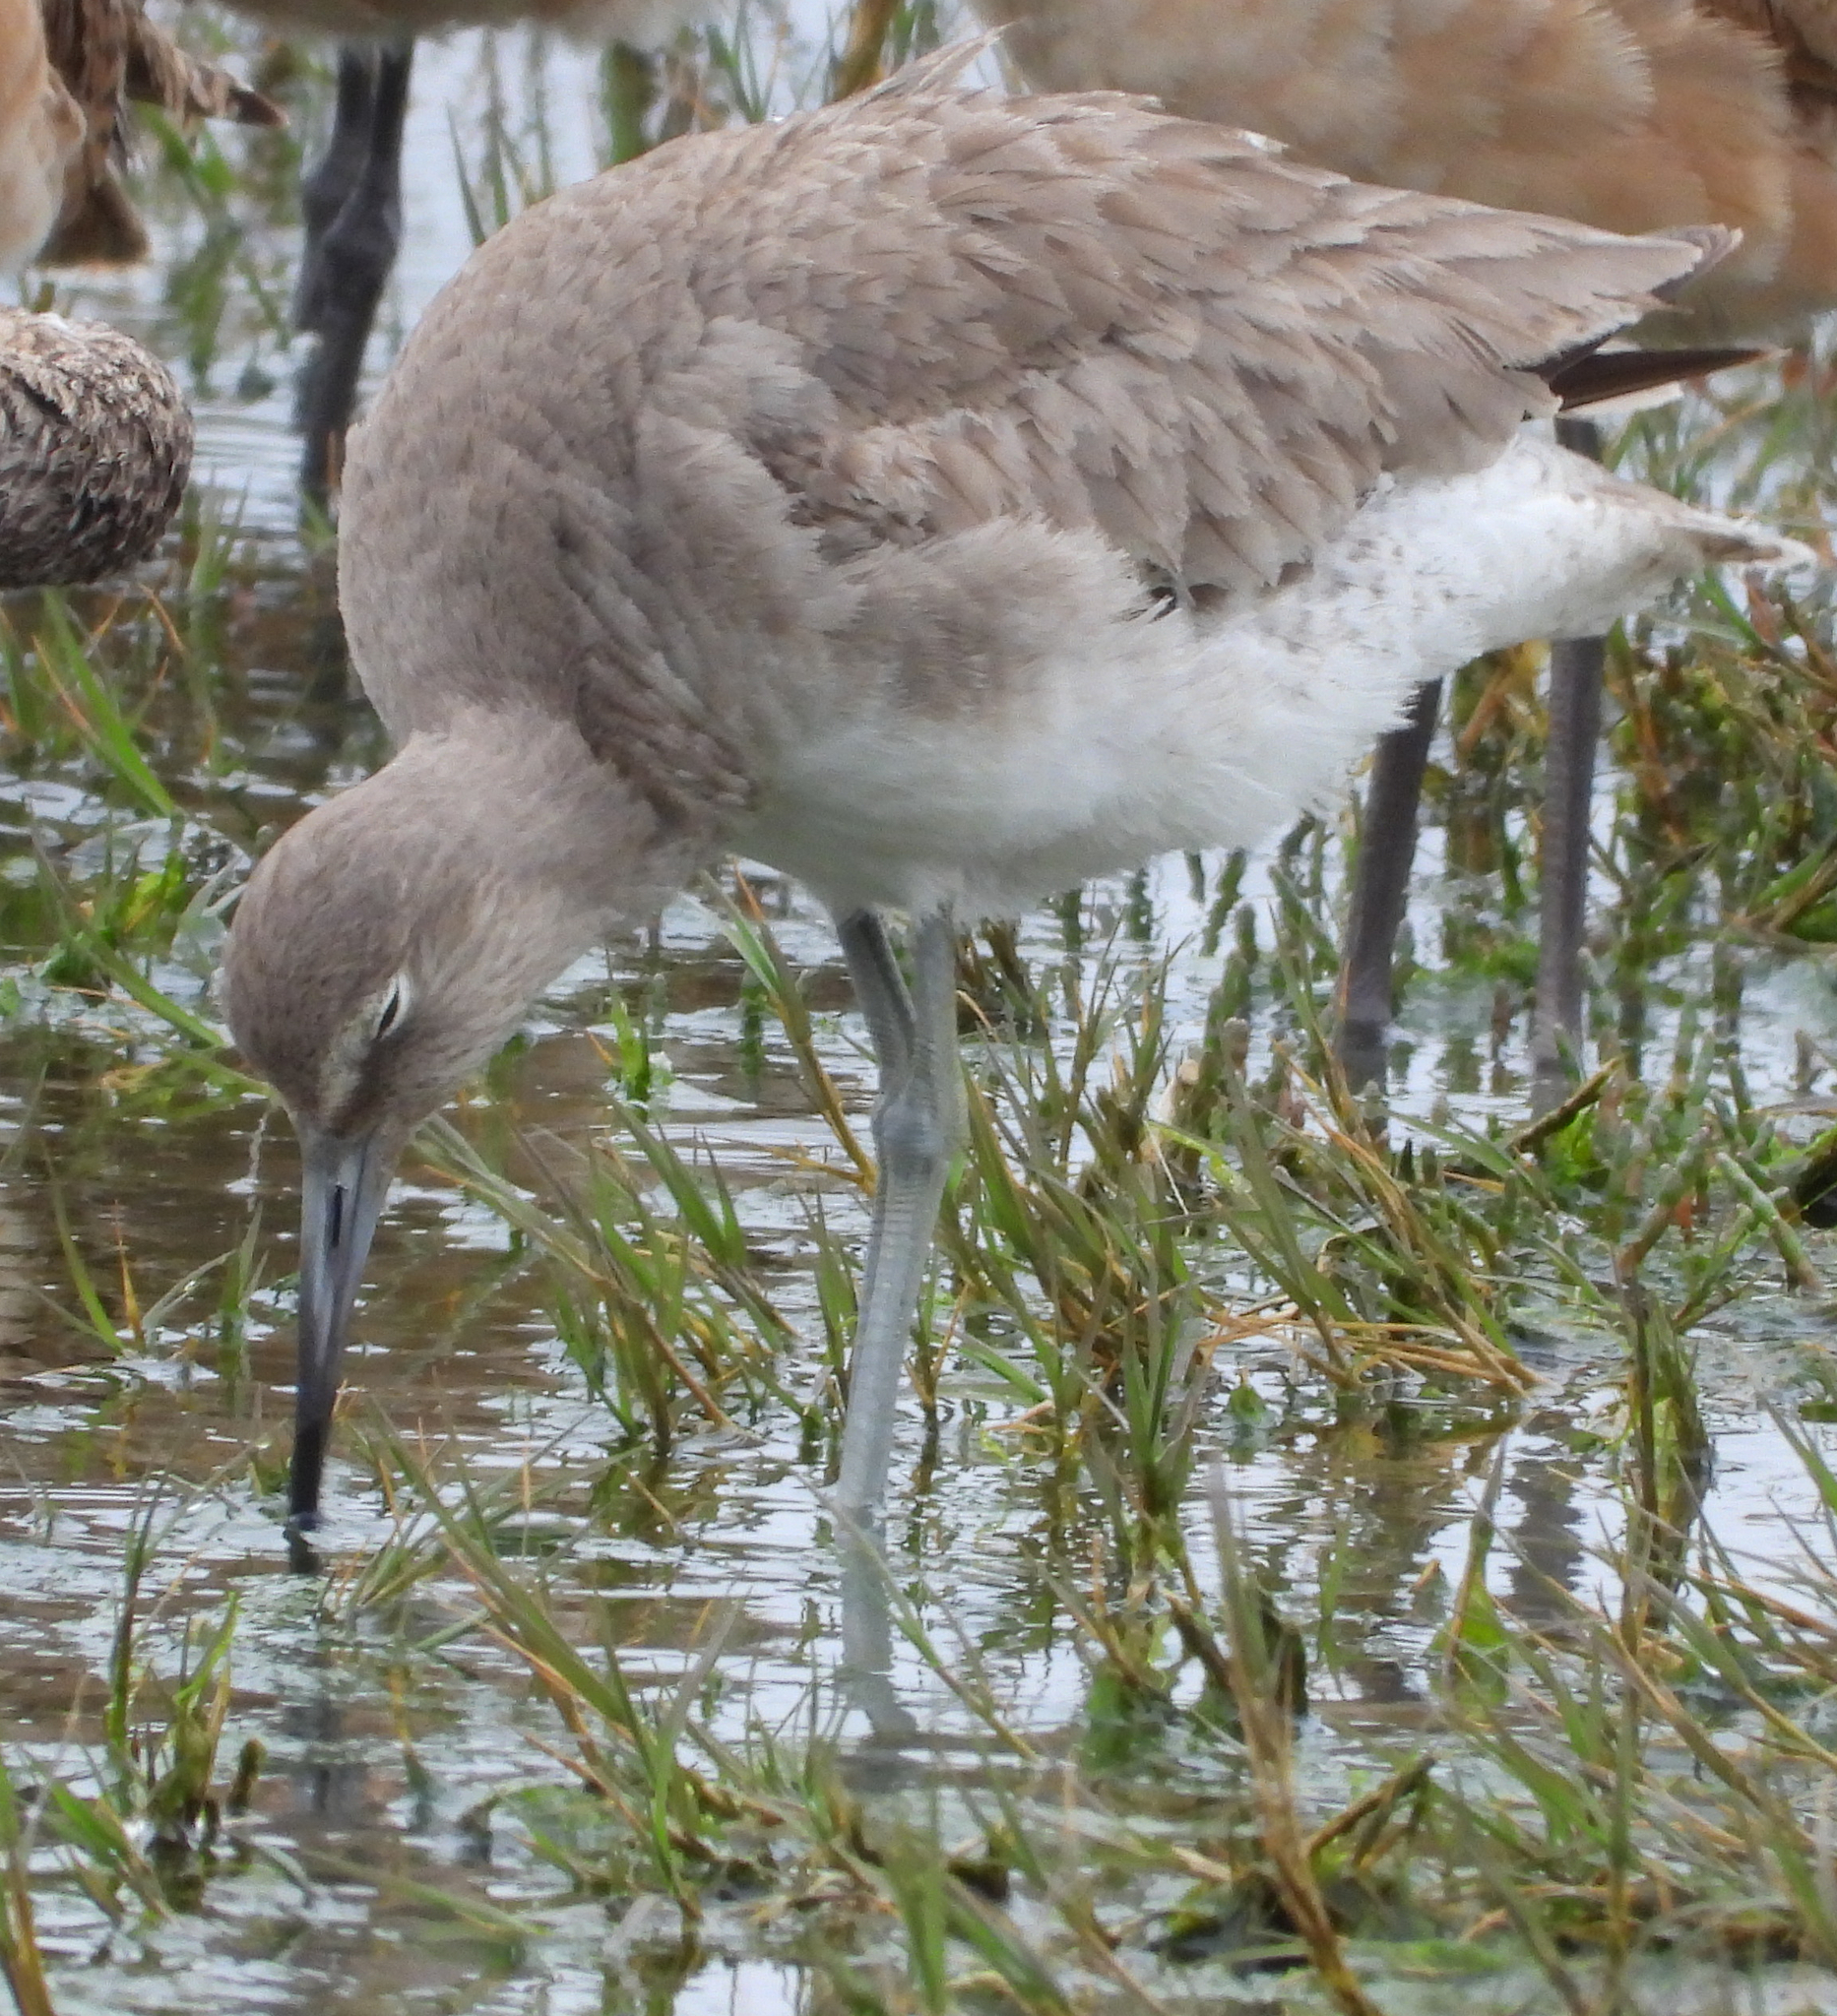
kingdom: Animalia
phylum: Chordata
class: Aves
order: Charadriiformes
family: Scolopacidae
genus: Tringa
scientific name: Tringa semipalmata
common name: Willet
